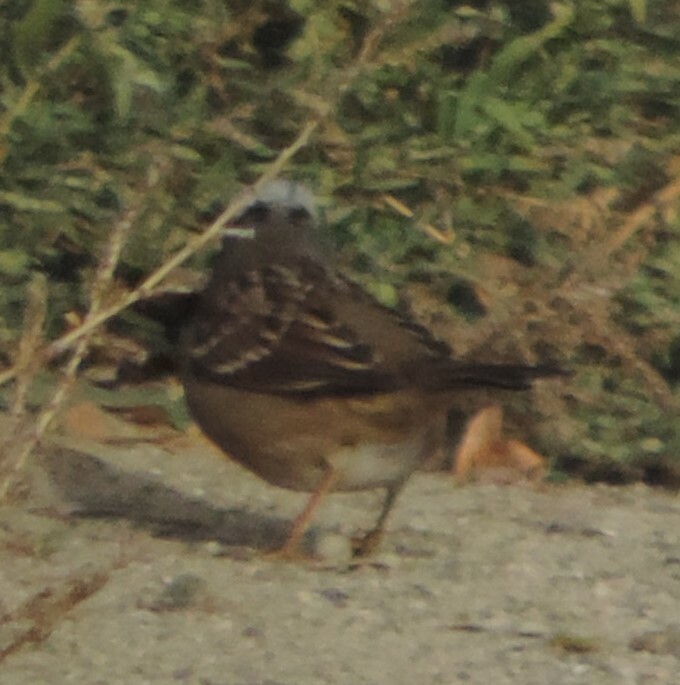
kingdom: Animalia
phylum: Chordata
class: Aves
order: Passeriformes
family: Passerellidae
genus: Zonotrichia
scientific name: Zonotrichia leucophrys
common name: White-crowned sparrow
